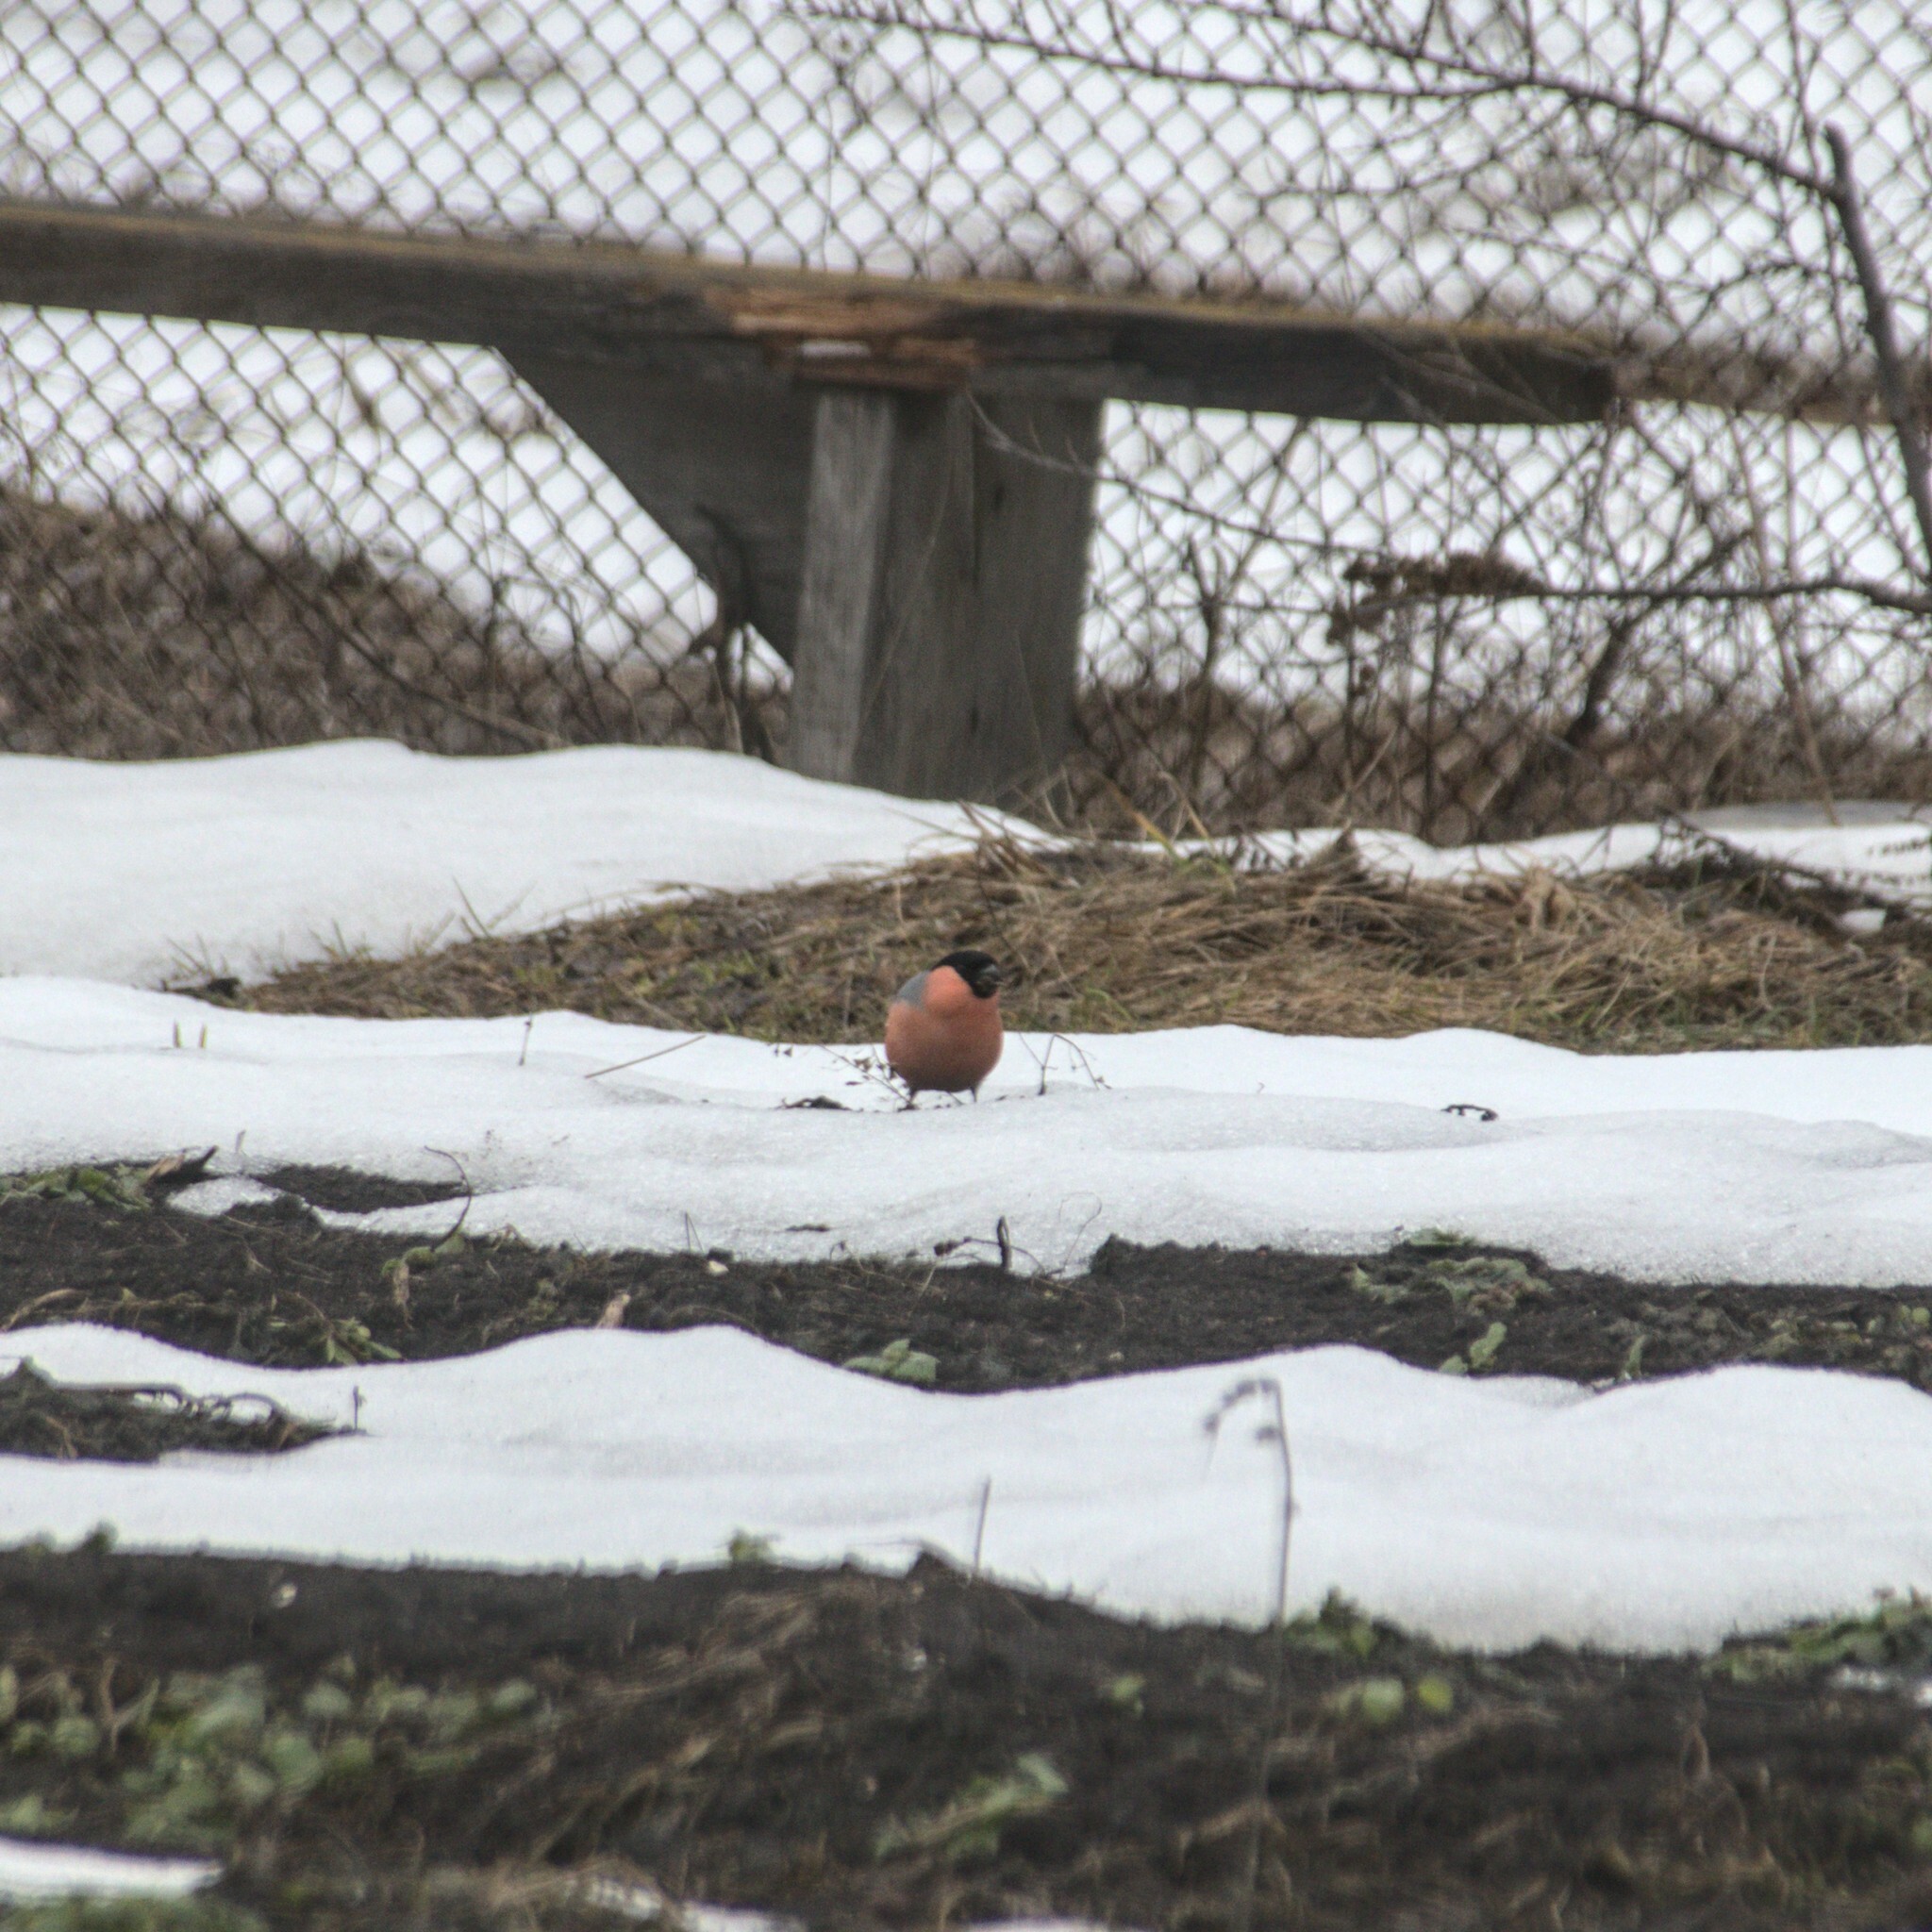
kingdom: Animalia
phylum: Chordata
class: Aves
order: Passeriformes
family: Fringillidae
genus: Pyrrhula
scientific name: Pyrrhula pyrrhula
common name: Eurasian bullfinch
